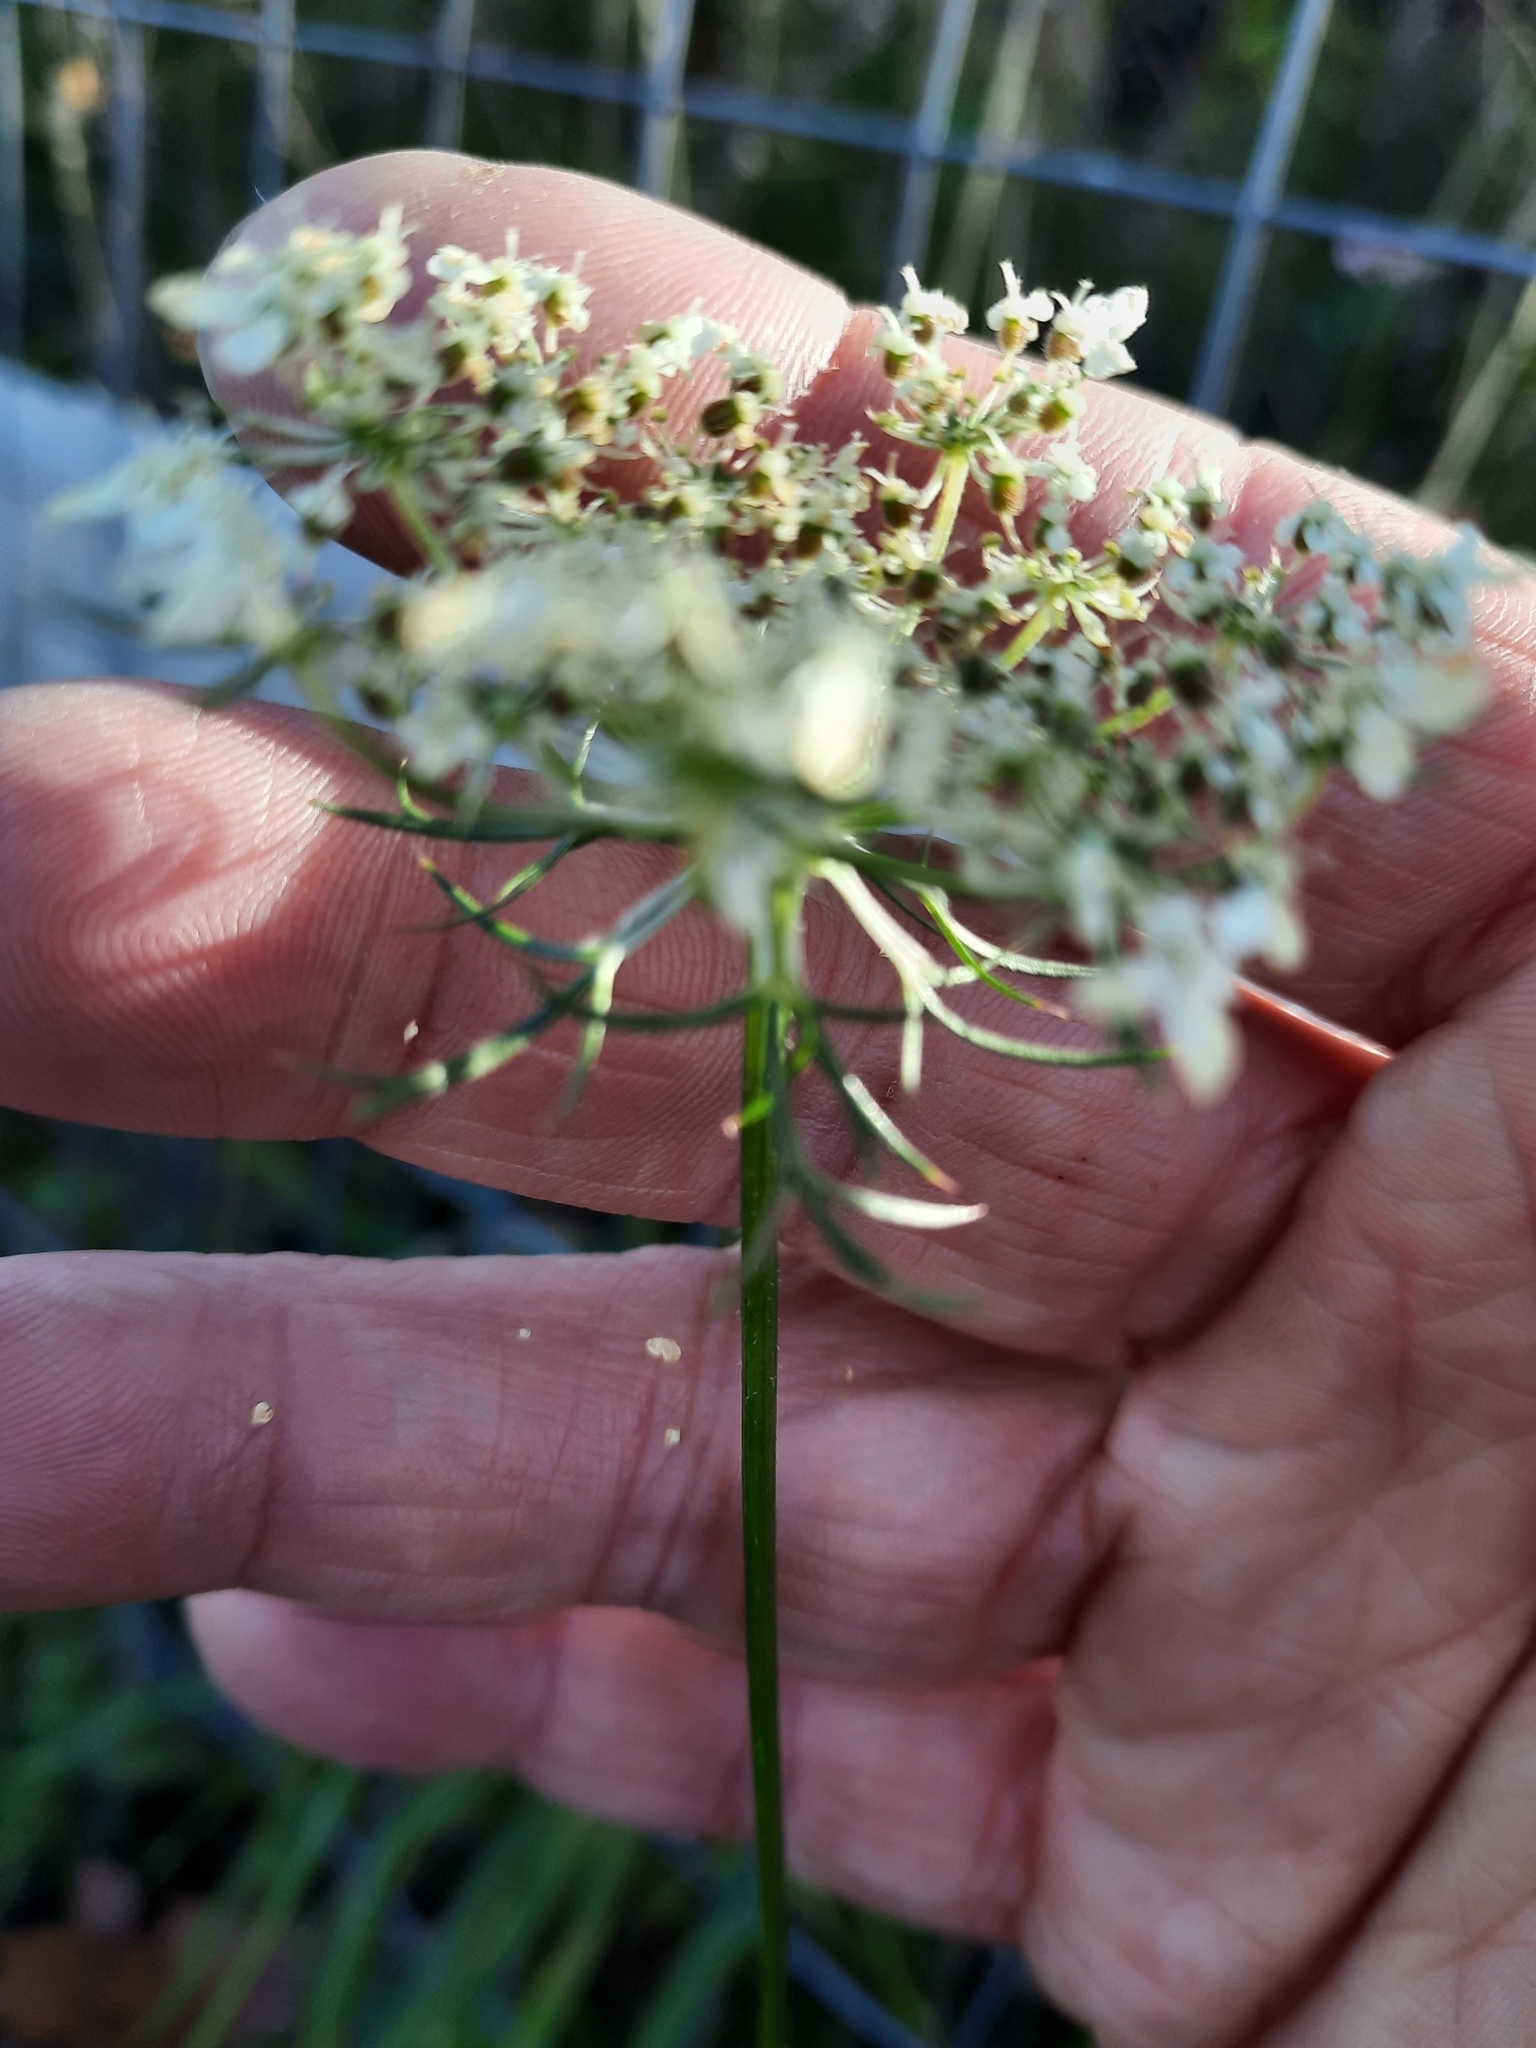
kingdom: Plantae
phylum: Tracheophyta
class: Magnoliopsida
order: Apiales
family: Apiaceae
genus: Daucus
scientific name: Daucus carota
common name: Wild carrot
